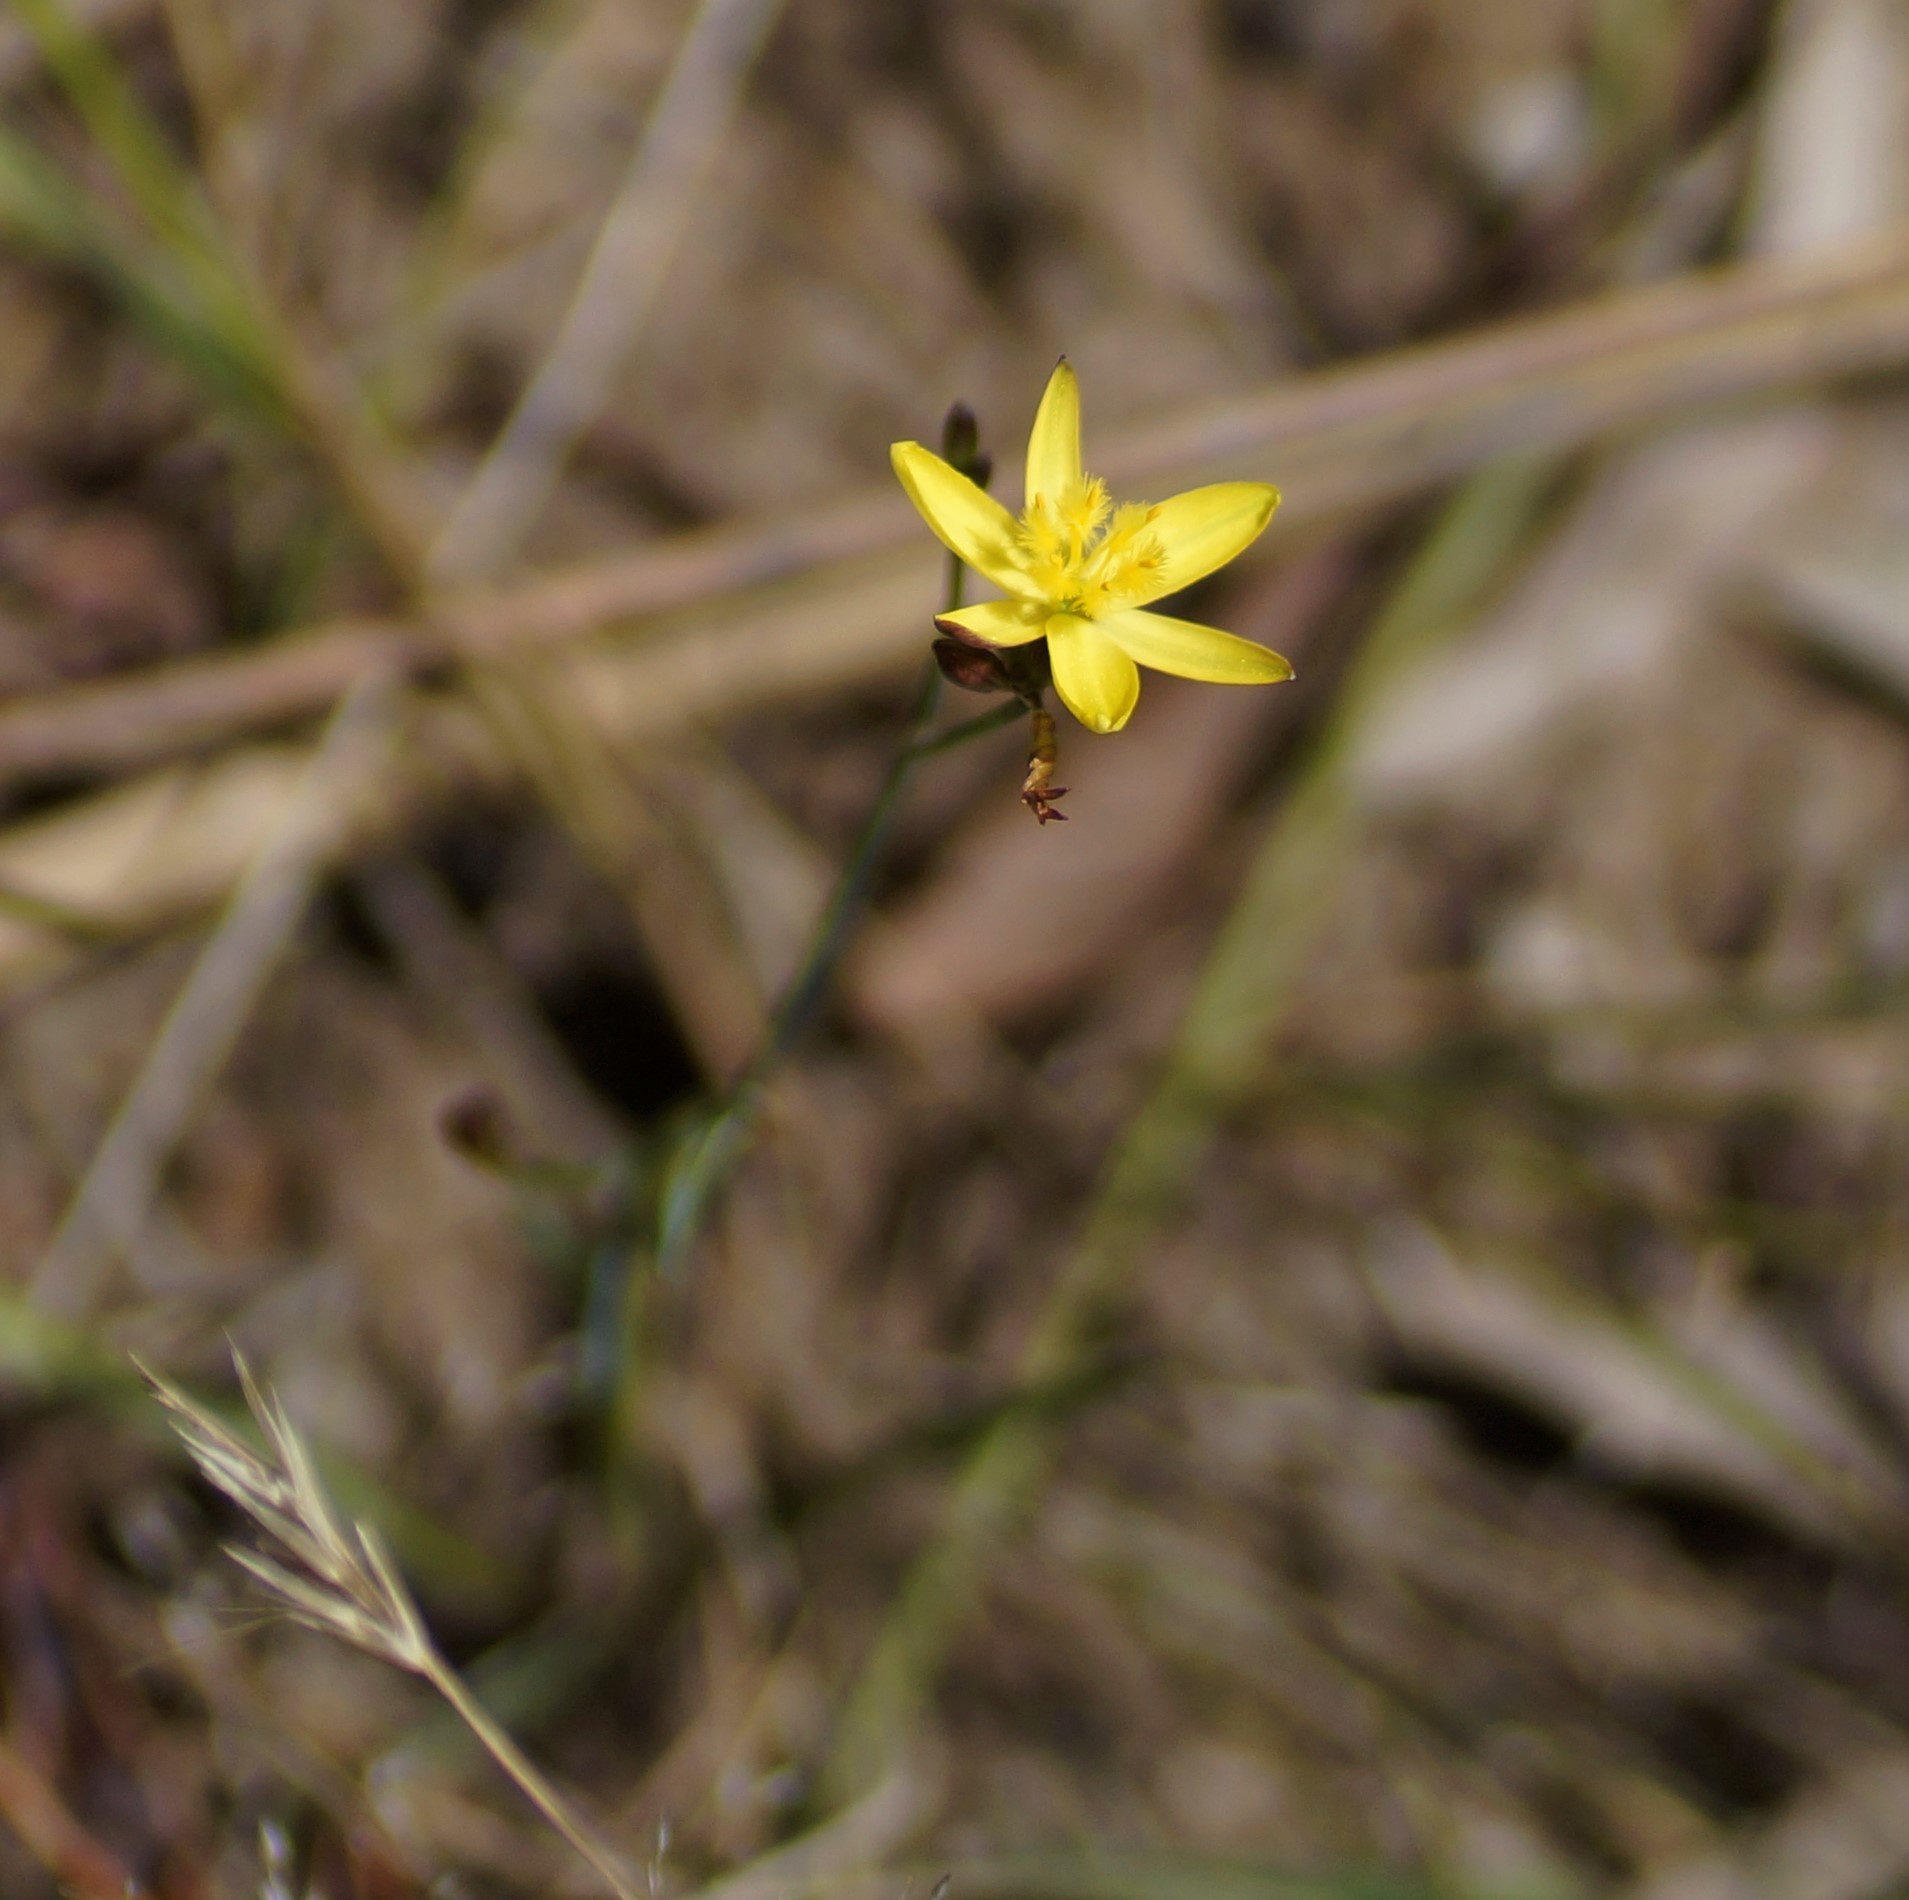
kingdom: Plantae
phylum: Tracheophyta
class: Liliopsida
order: Asparagales
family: Asphodelaceae
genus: Tricoryne
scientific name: Tricoryne elatior
